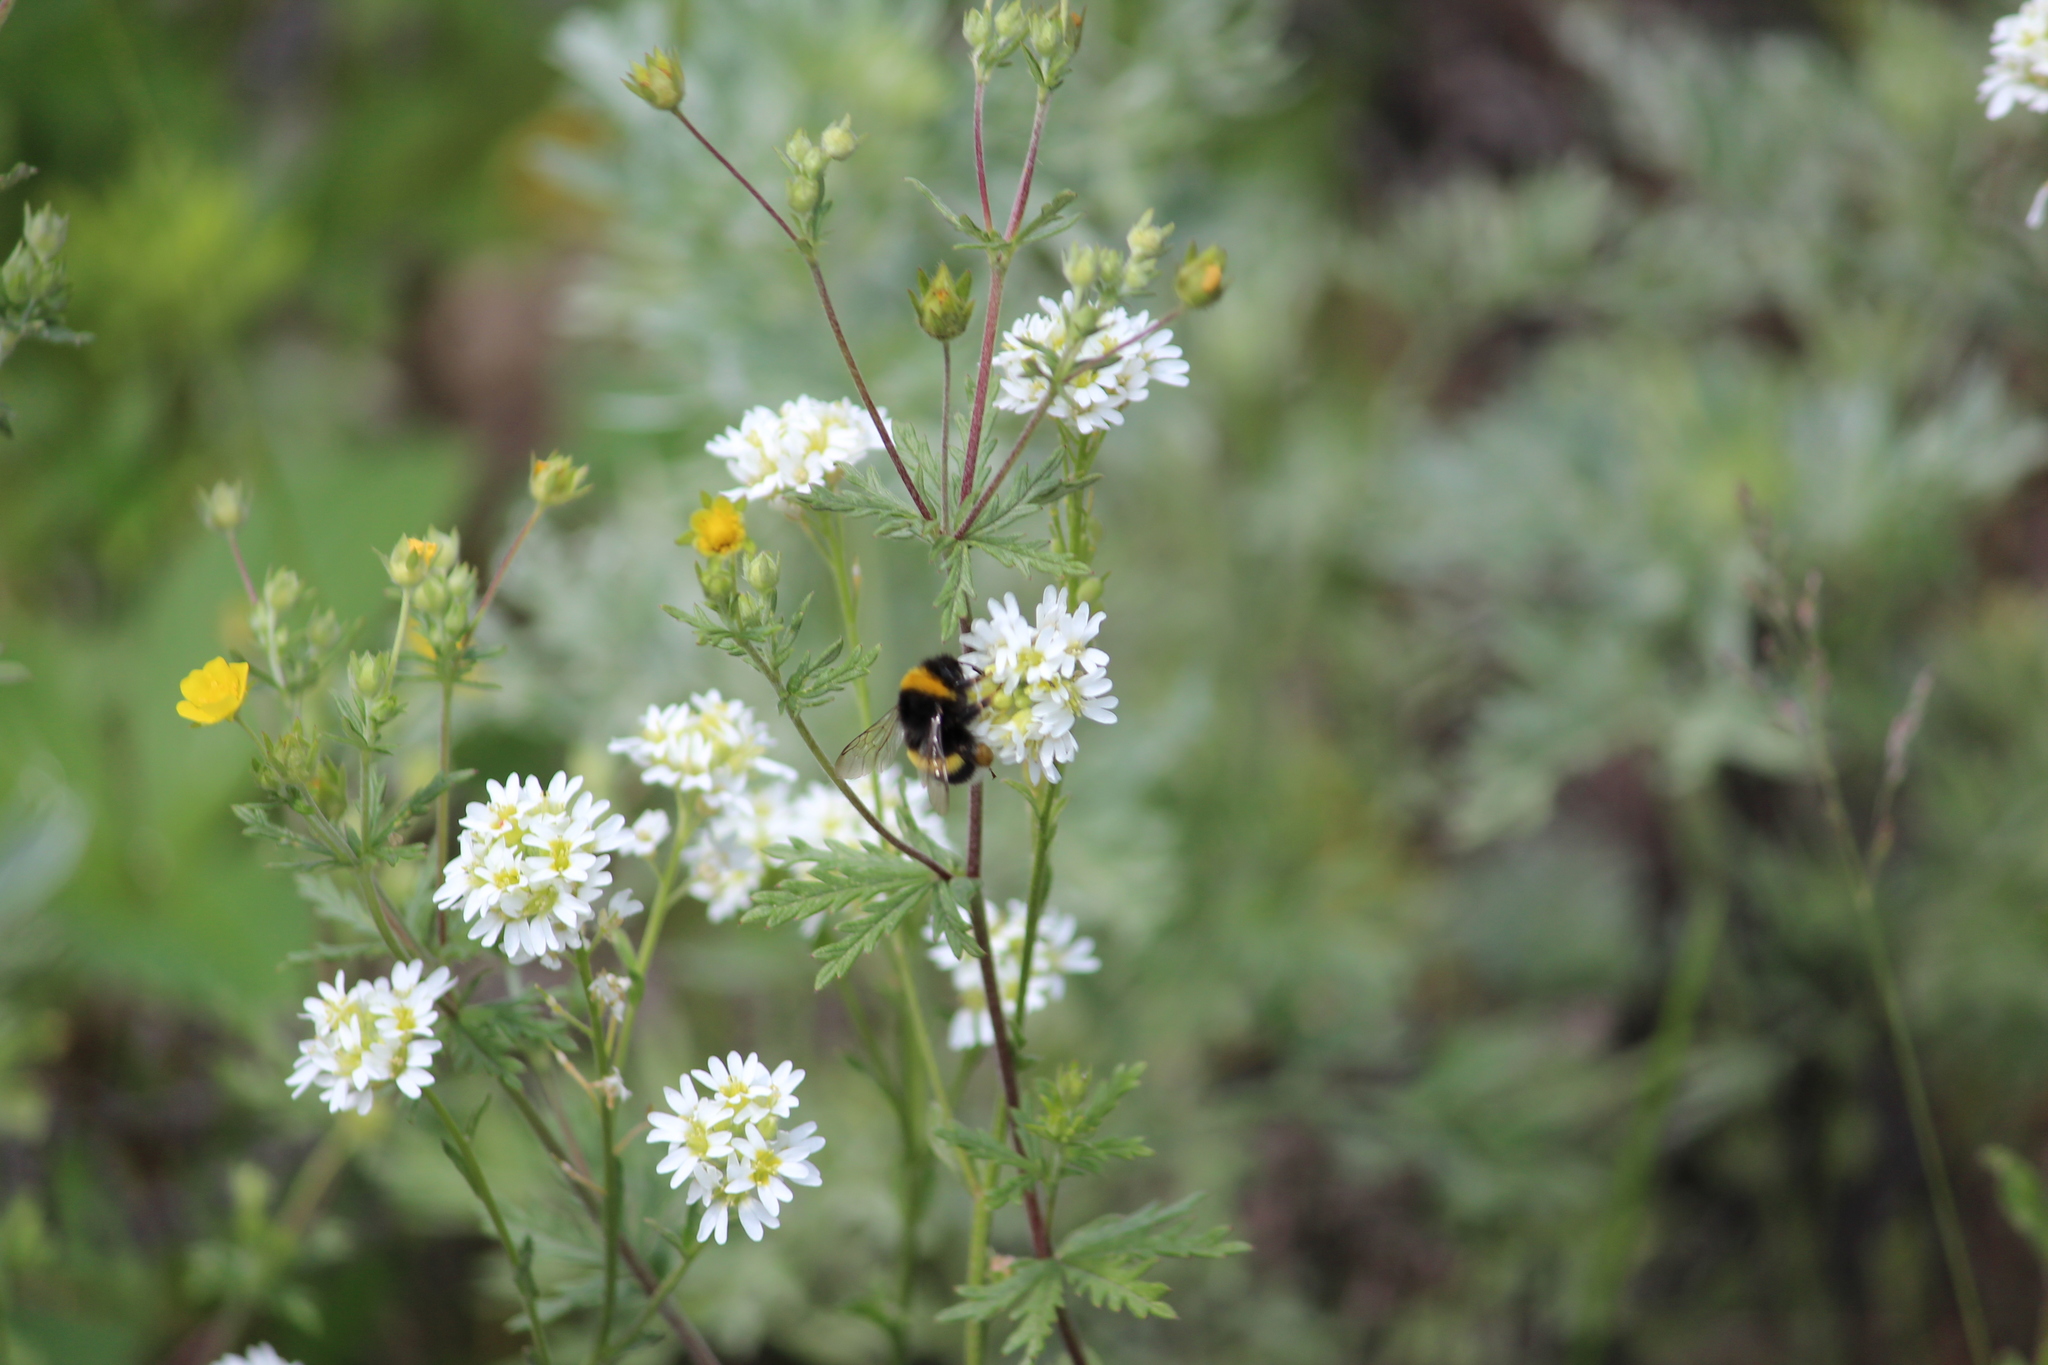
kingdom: Animalia
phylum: Arthropoda
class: Insecta
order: Hymenoptera
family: Apidae
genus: Bombus
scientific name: Bombus
